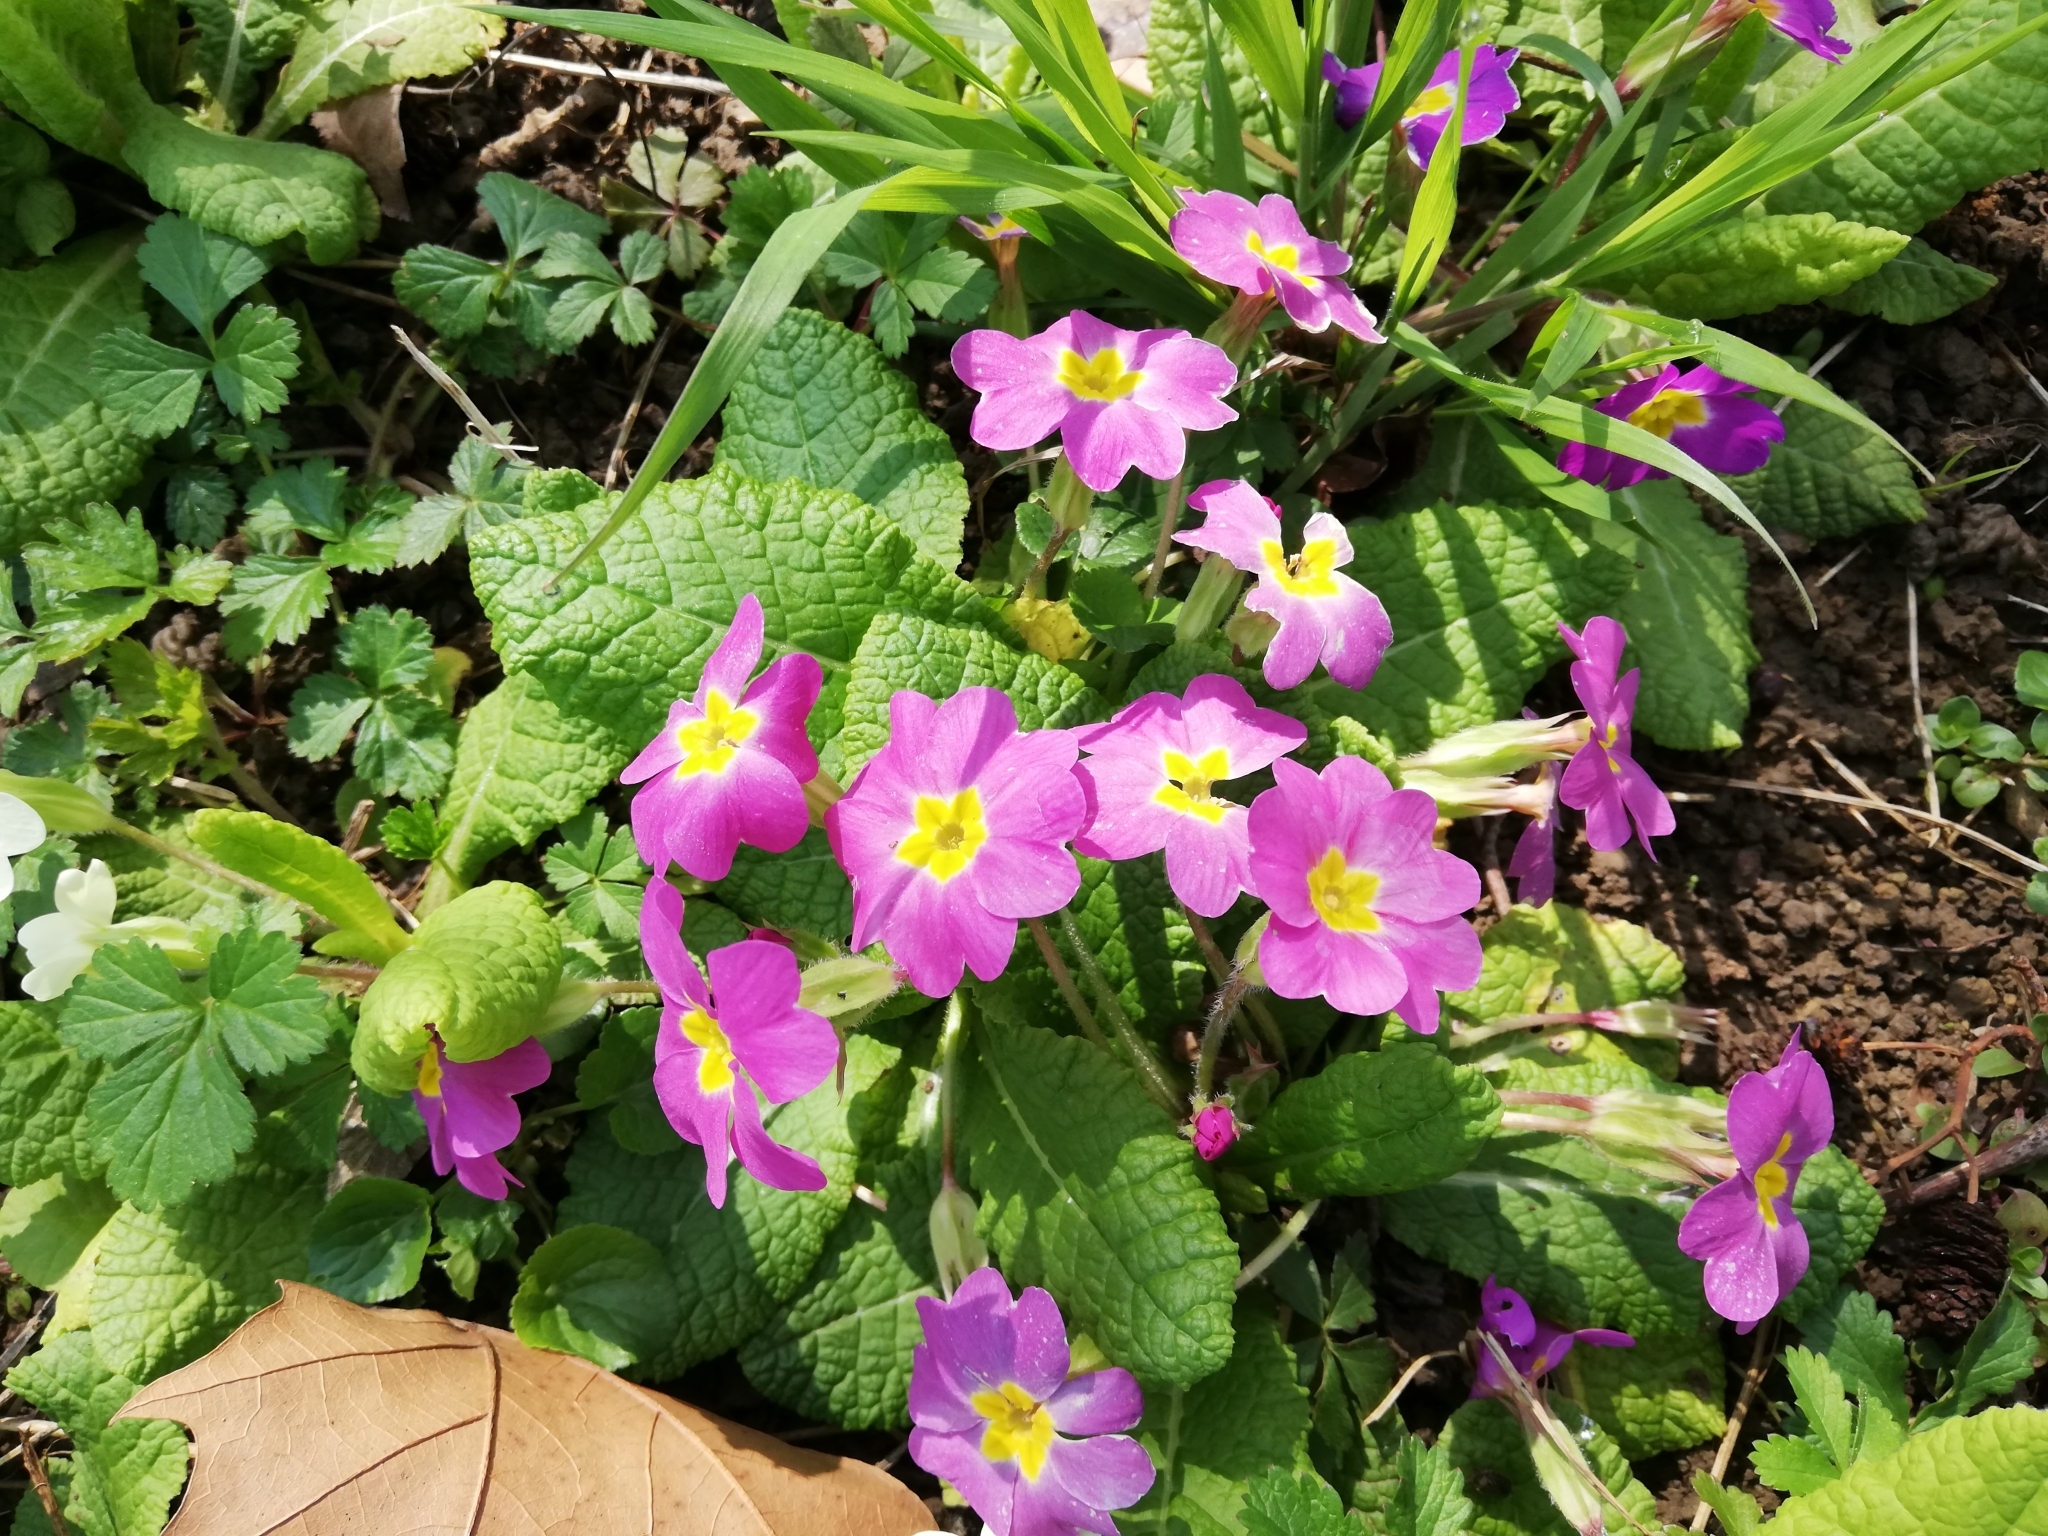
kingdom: Plantae
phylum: Tracheophyta
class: Magnoliopsida
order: Ericales
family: Primulaceae
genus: Primula
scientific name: Primula vulgaris
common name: Primrose
